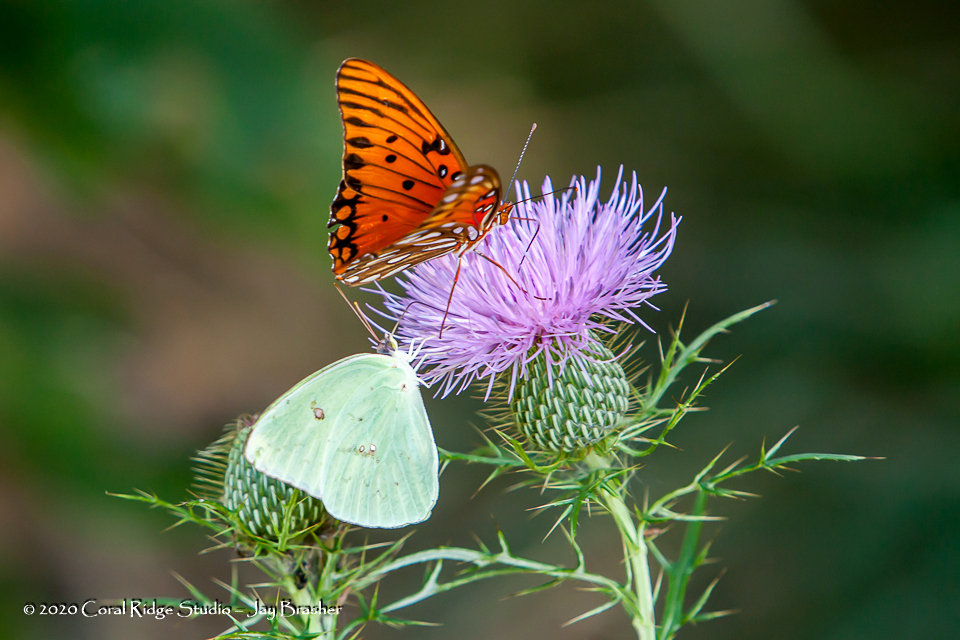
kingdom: Animalia
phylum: Arthropoda
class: Insecta
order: Lepidoptera
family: Pieridae
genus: Phoebis
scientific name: Phoebis sennae
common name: Cloudless sulphur
